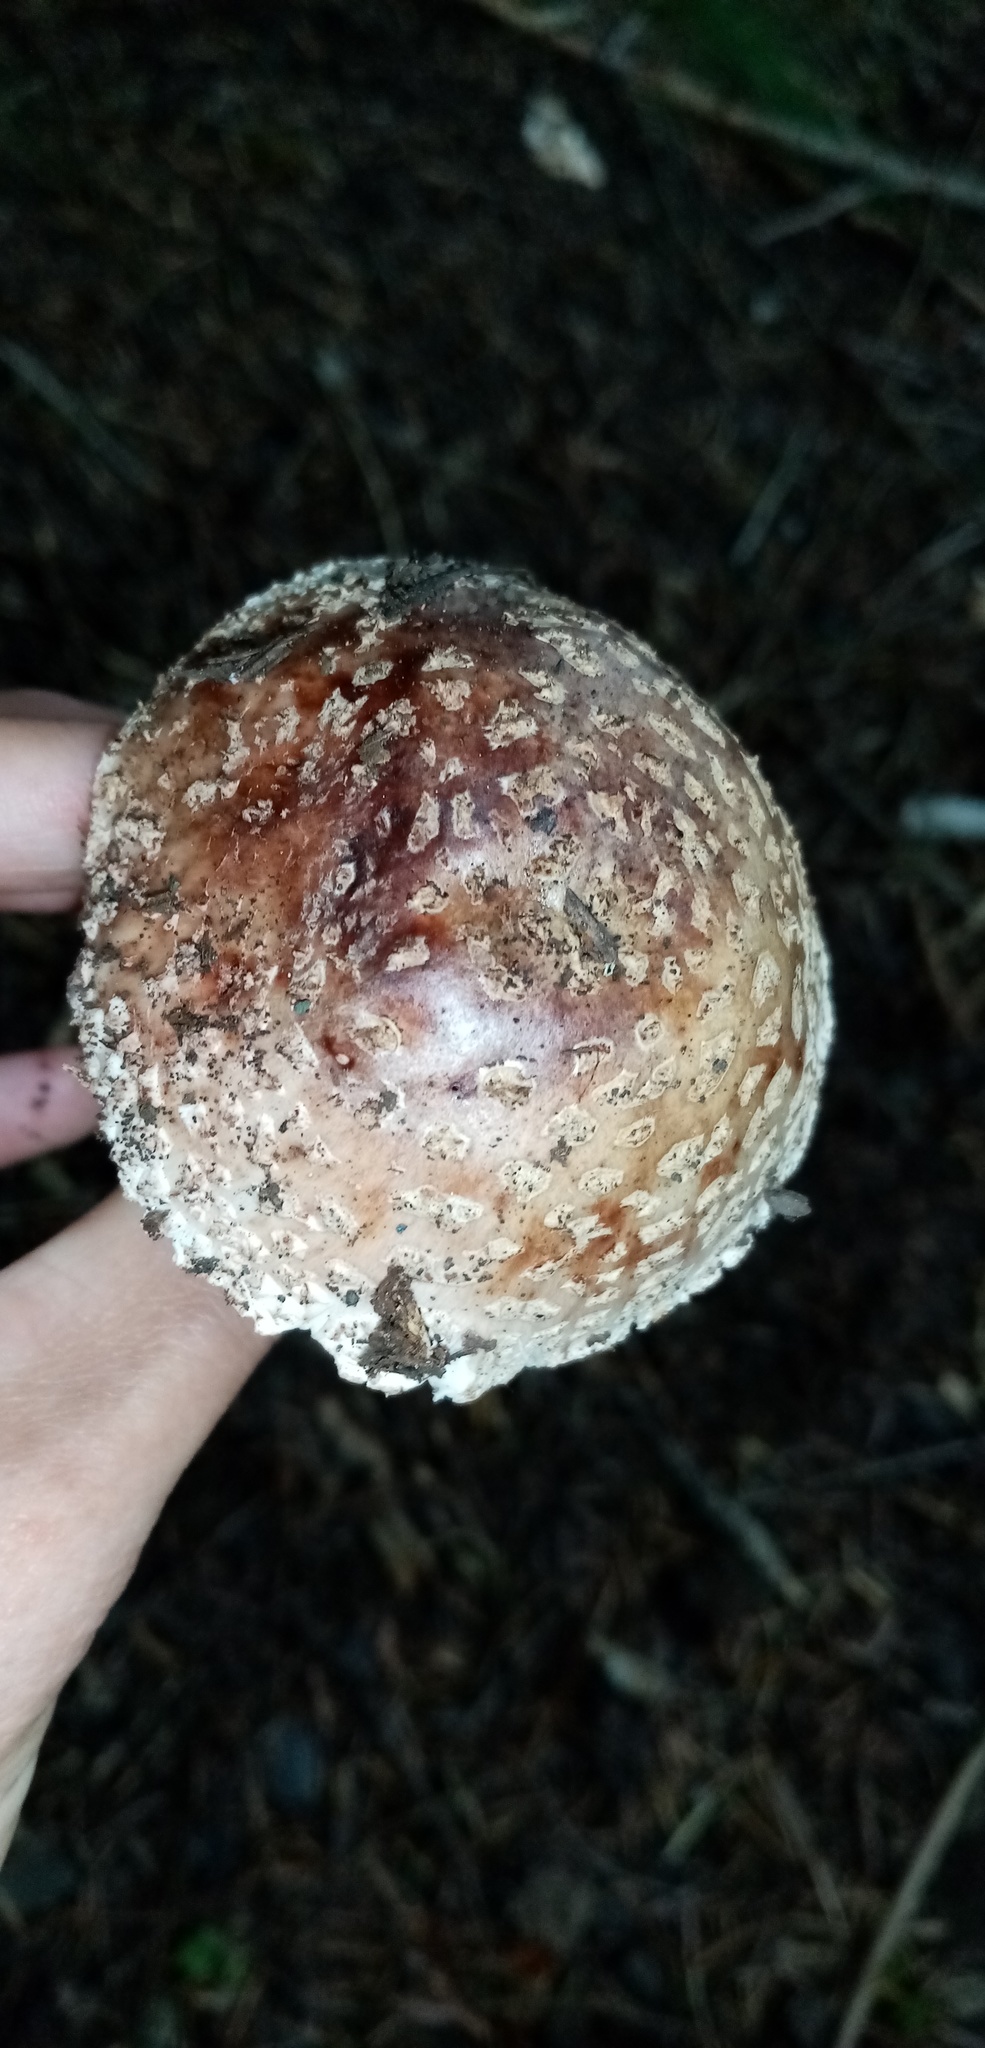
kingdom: Fungi
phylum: Basidiomycota
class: Agaricomycetes
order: Agaricales
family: Amanitaceae
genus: Amanita
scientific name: Amanita rubescens
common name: Blusher
